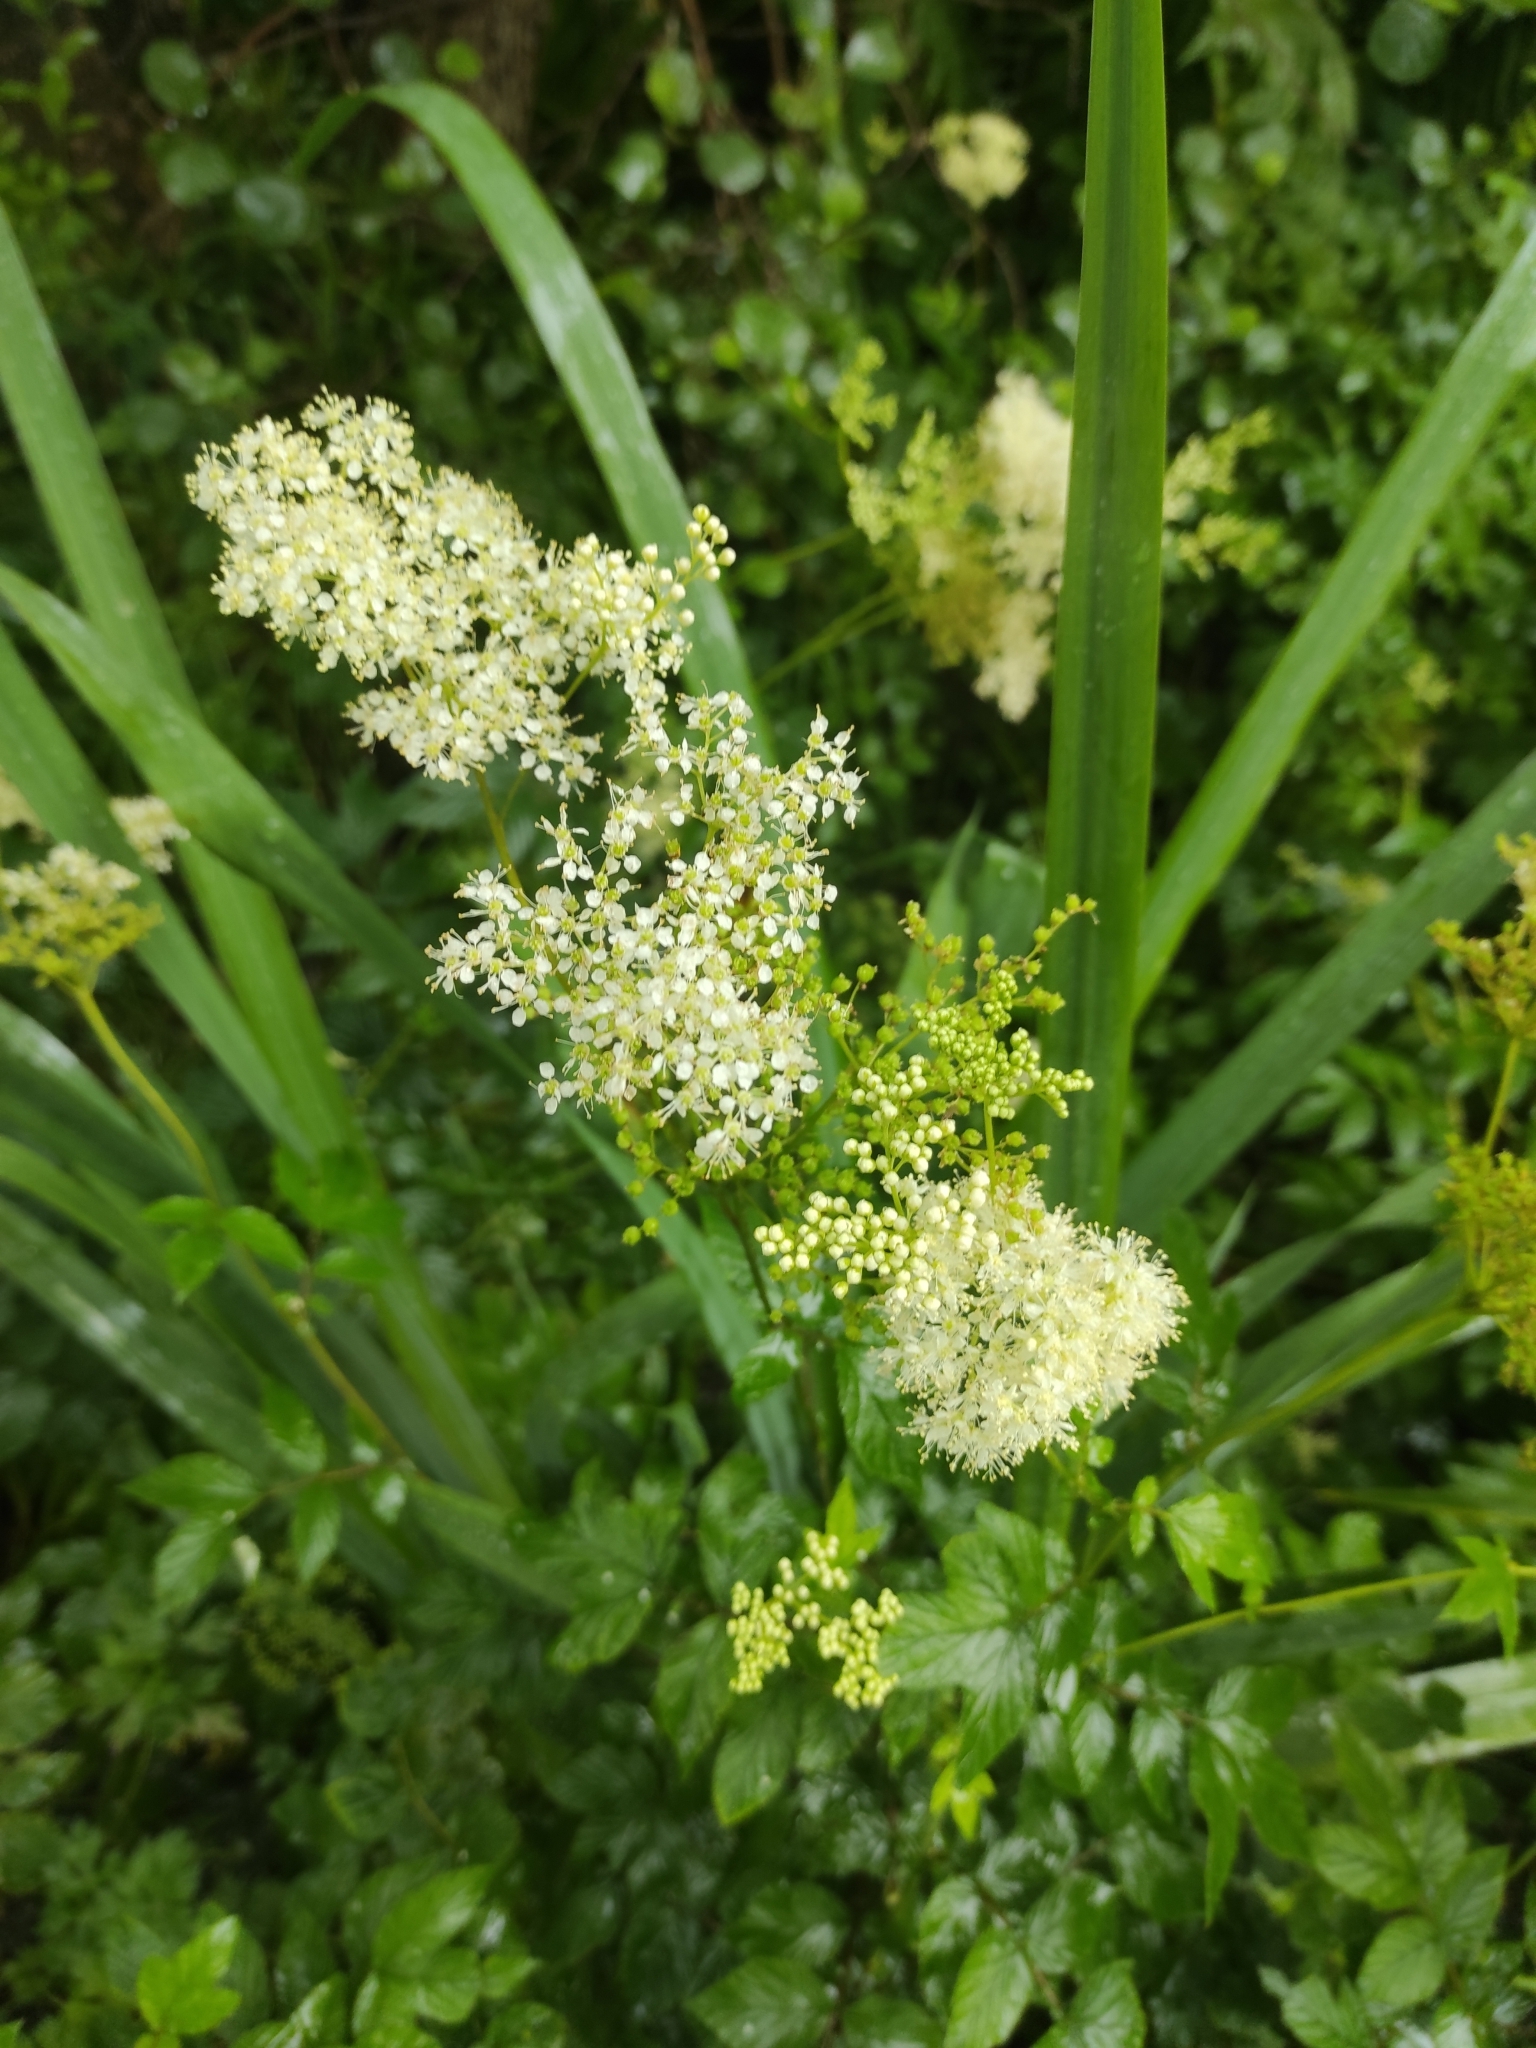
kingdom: Plantae
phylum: Tracheophyta
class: Magnoliopsida
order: Rosales
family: Rosaceae
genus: Filipendula
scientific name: Filipendula ulmaria
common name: Meadowsweet
